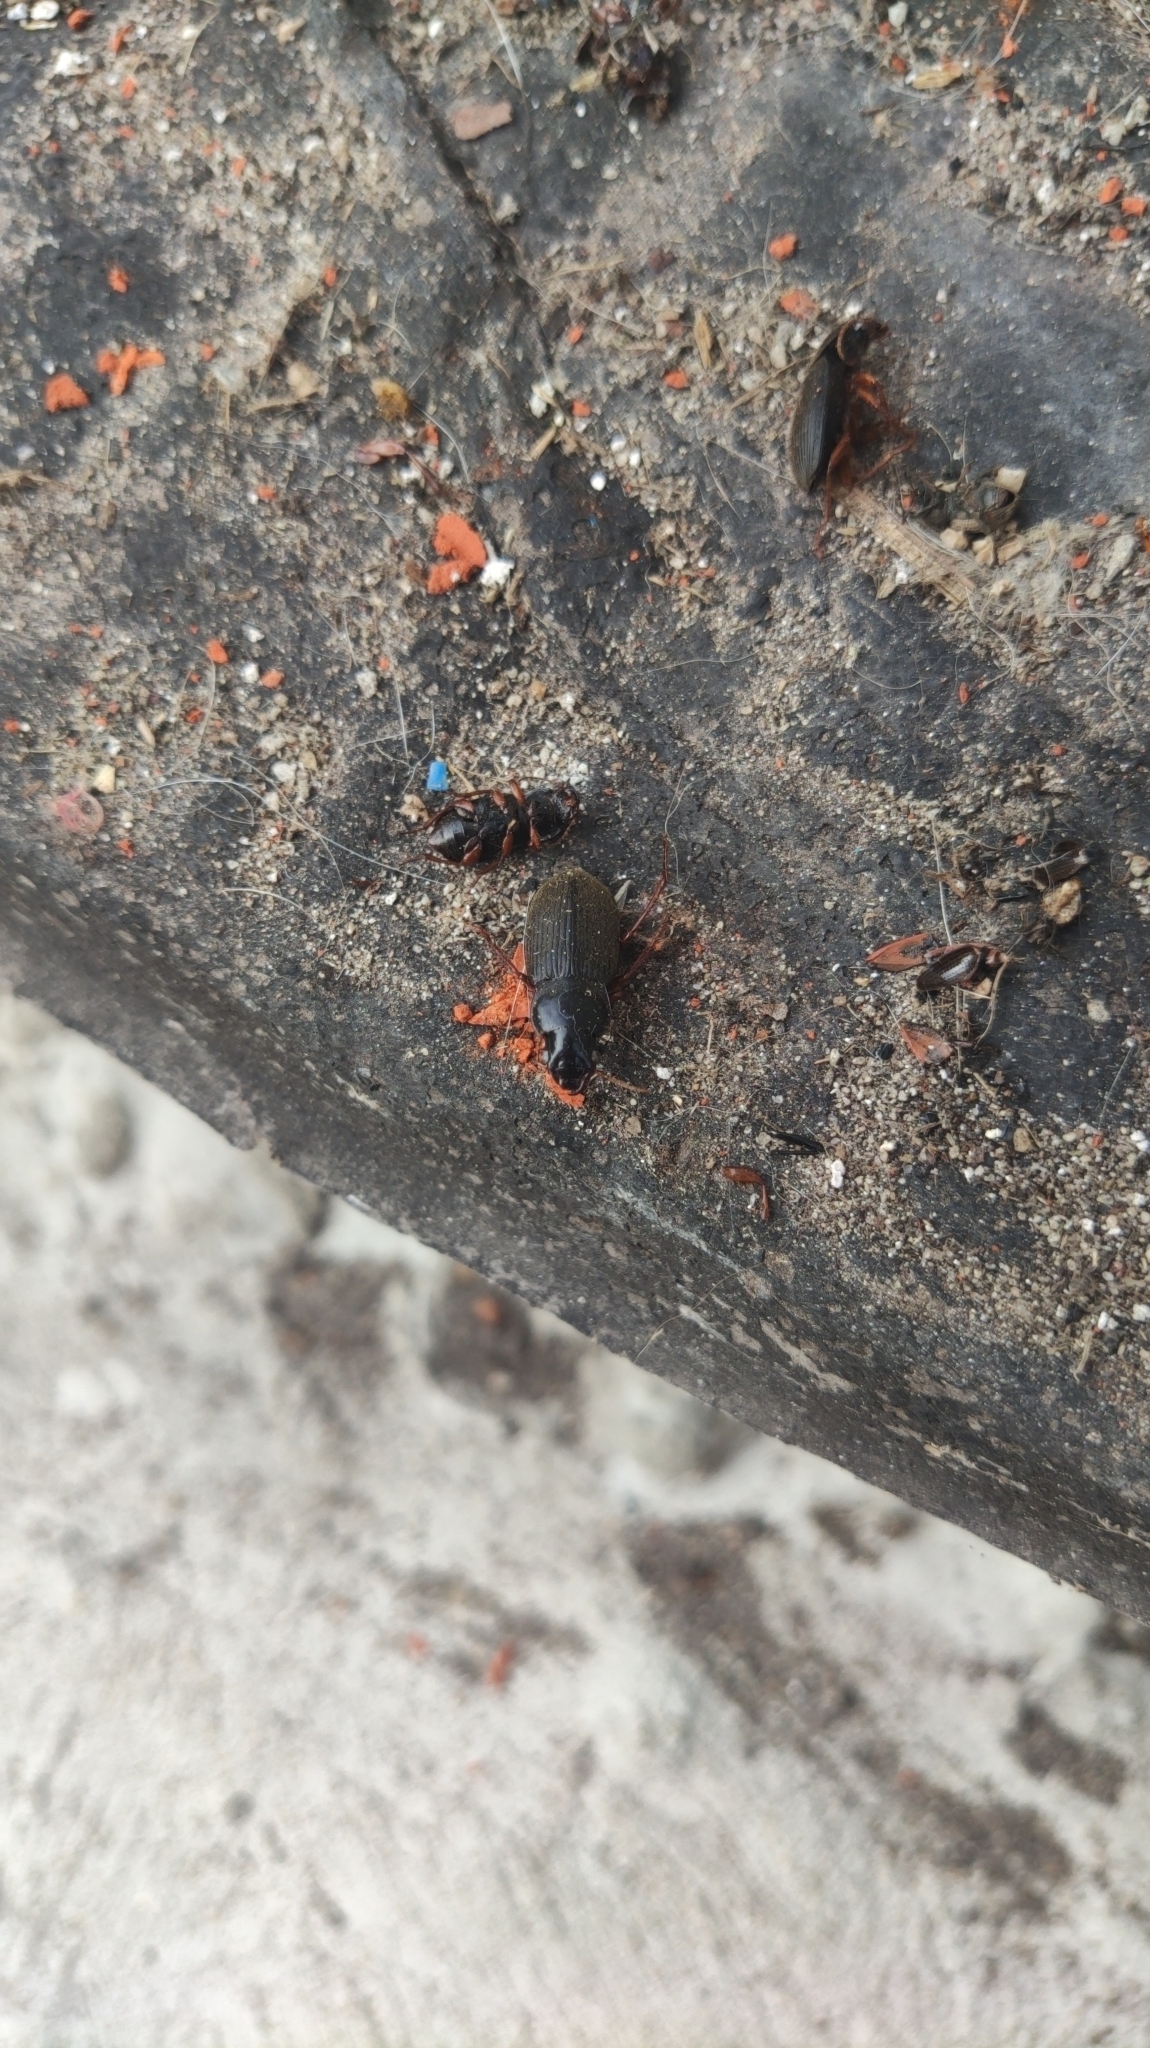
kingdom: Animalia
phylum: Arthropoda
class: Insecta
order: Coleoptera
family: Carabidae
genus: Harpalus
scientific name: Harpalus rufipes
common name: Strawberry harp ground beetle
